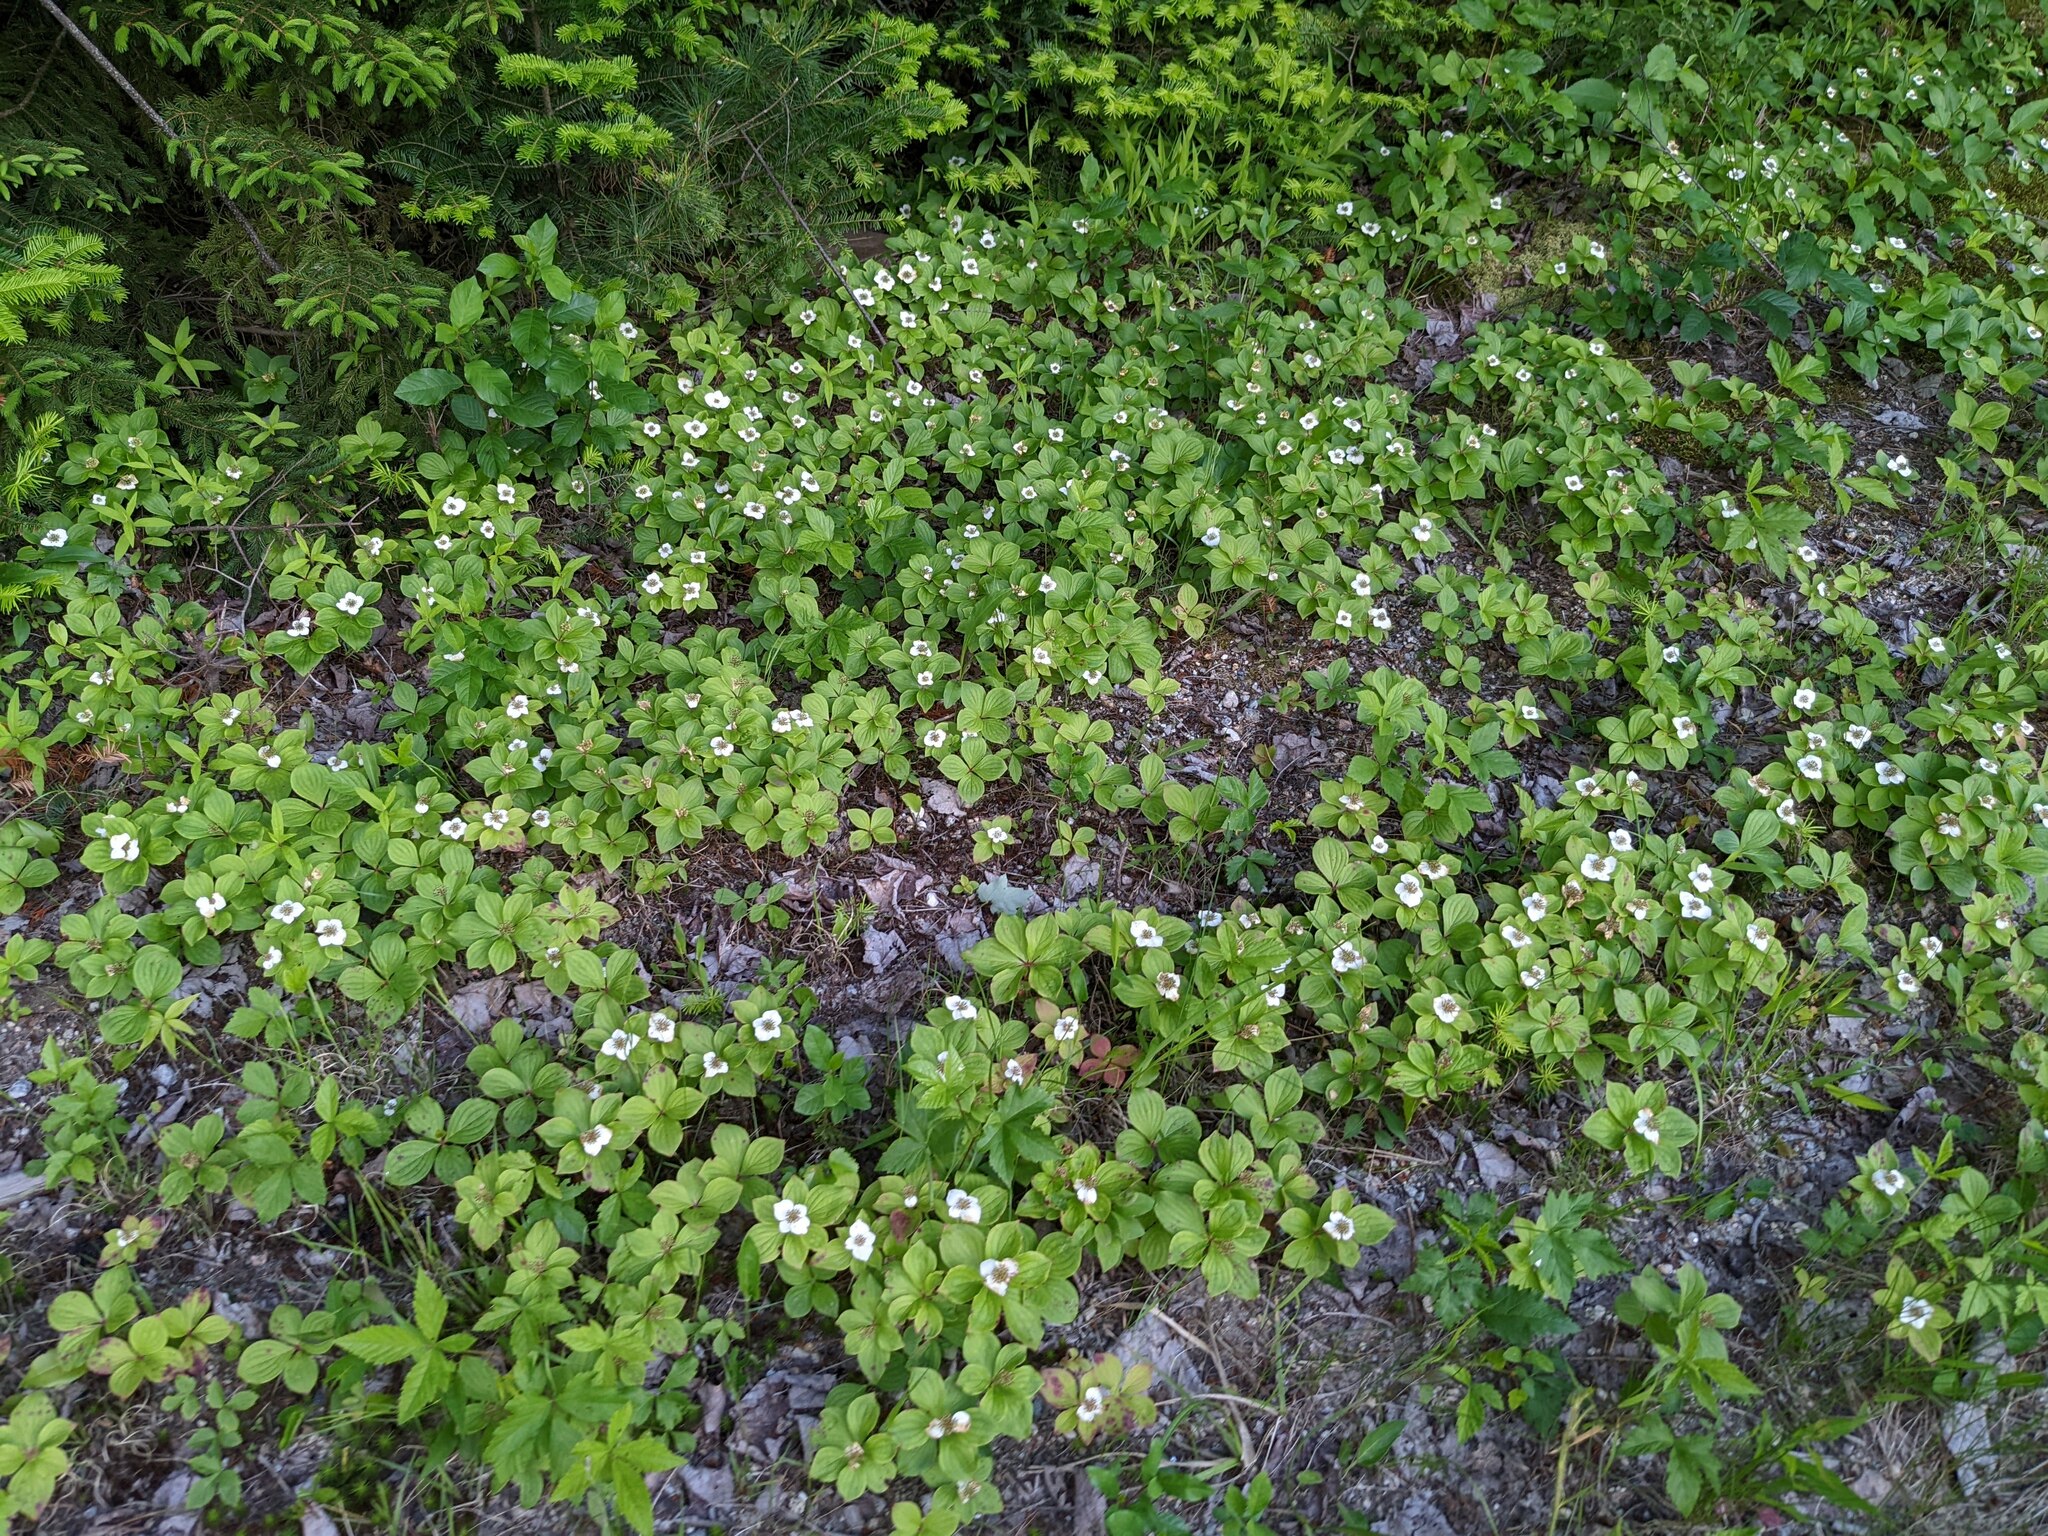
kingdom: Plantae
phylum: Tracheophyta
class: Magnoliopsida
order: Cornales
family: Cornaceae
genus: Cornus
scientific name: Cornus canadensis
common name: Creeping dogwood
